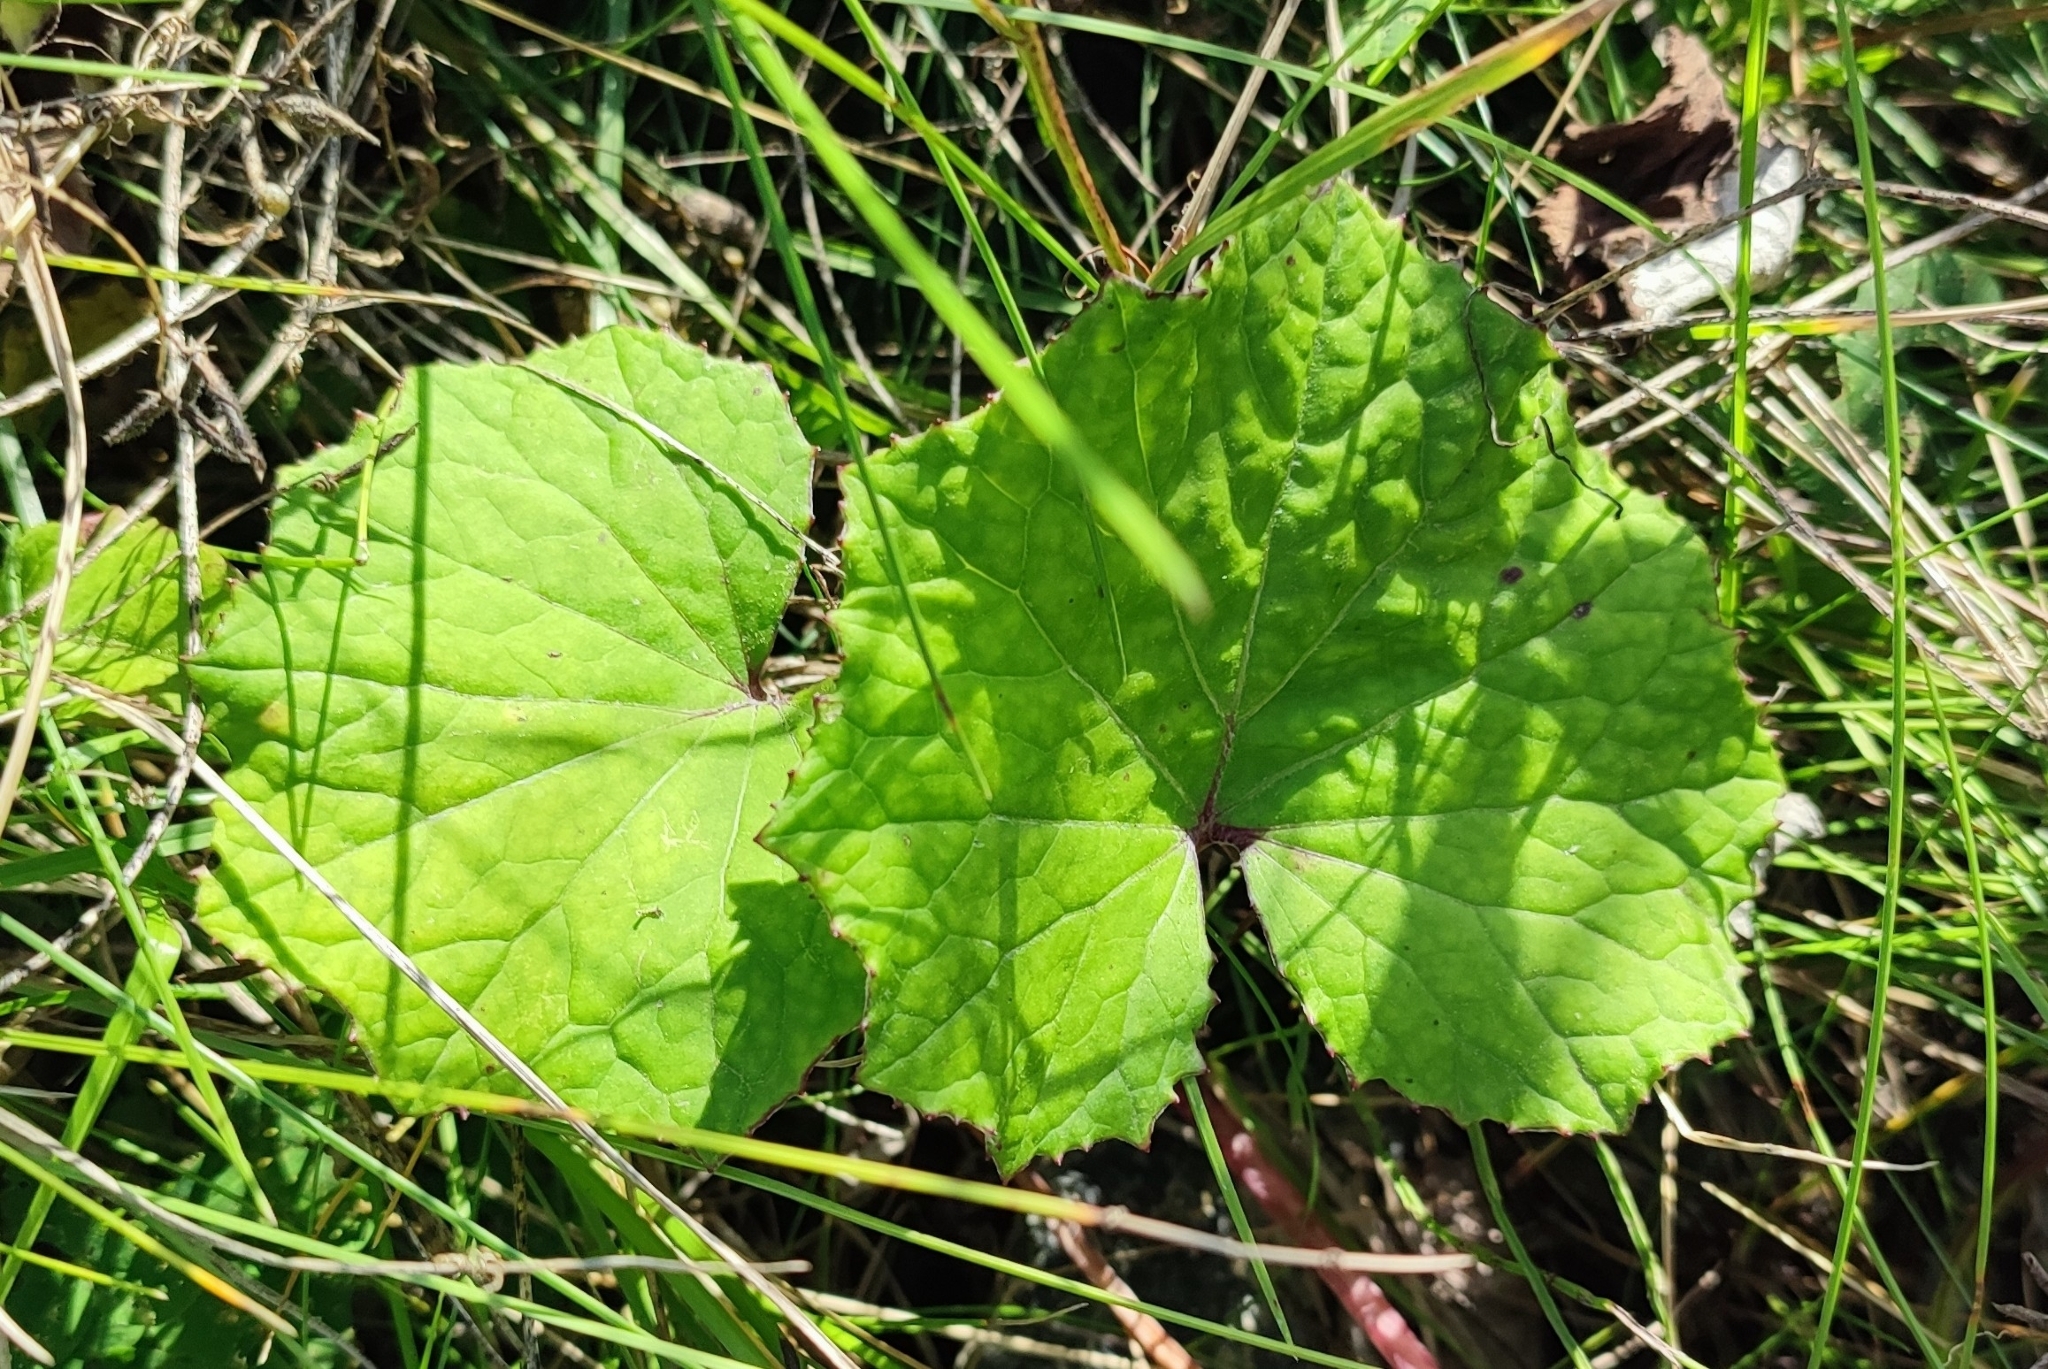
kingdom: Plantae
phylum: Tracheophyta
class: Magnoliopsida
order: Asterales
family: Asteraceae
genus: Tussilago
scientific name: Tussilago farfara
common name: Coltsfoot
